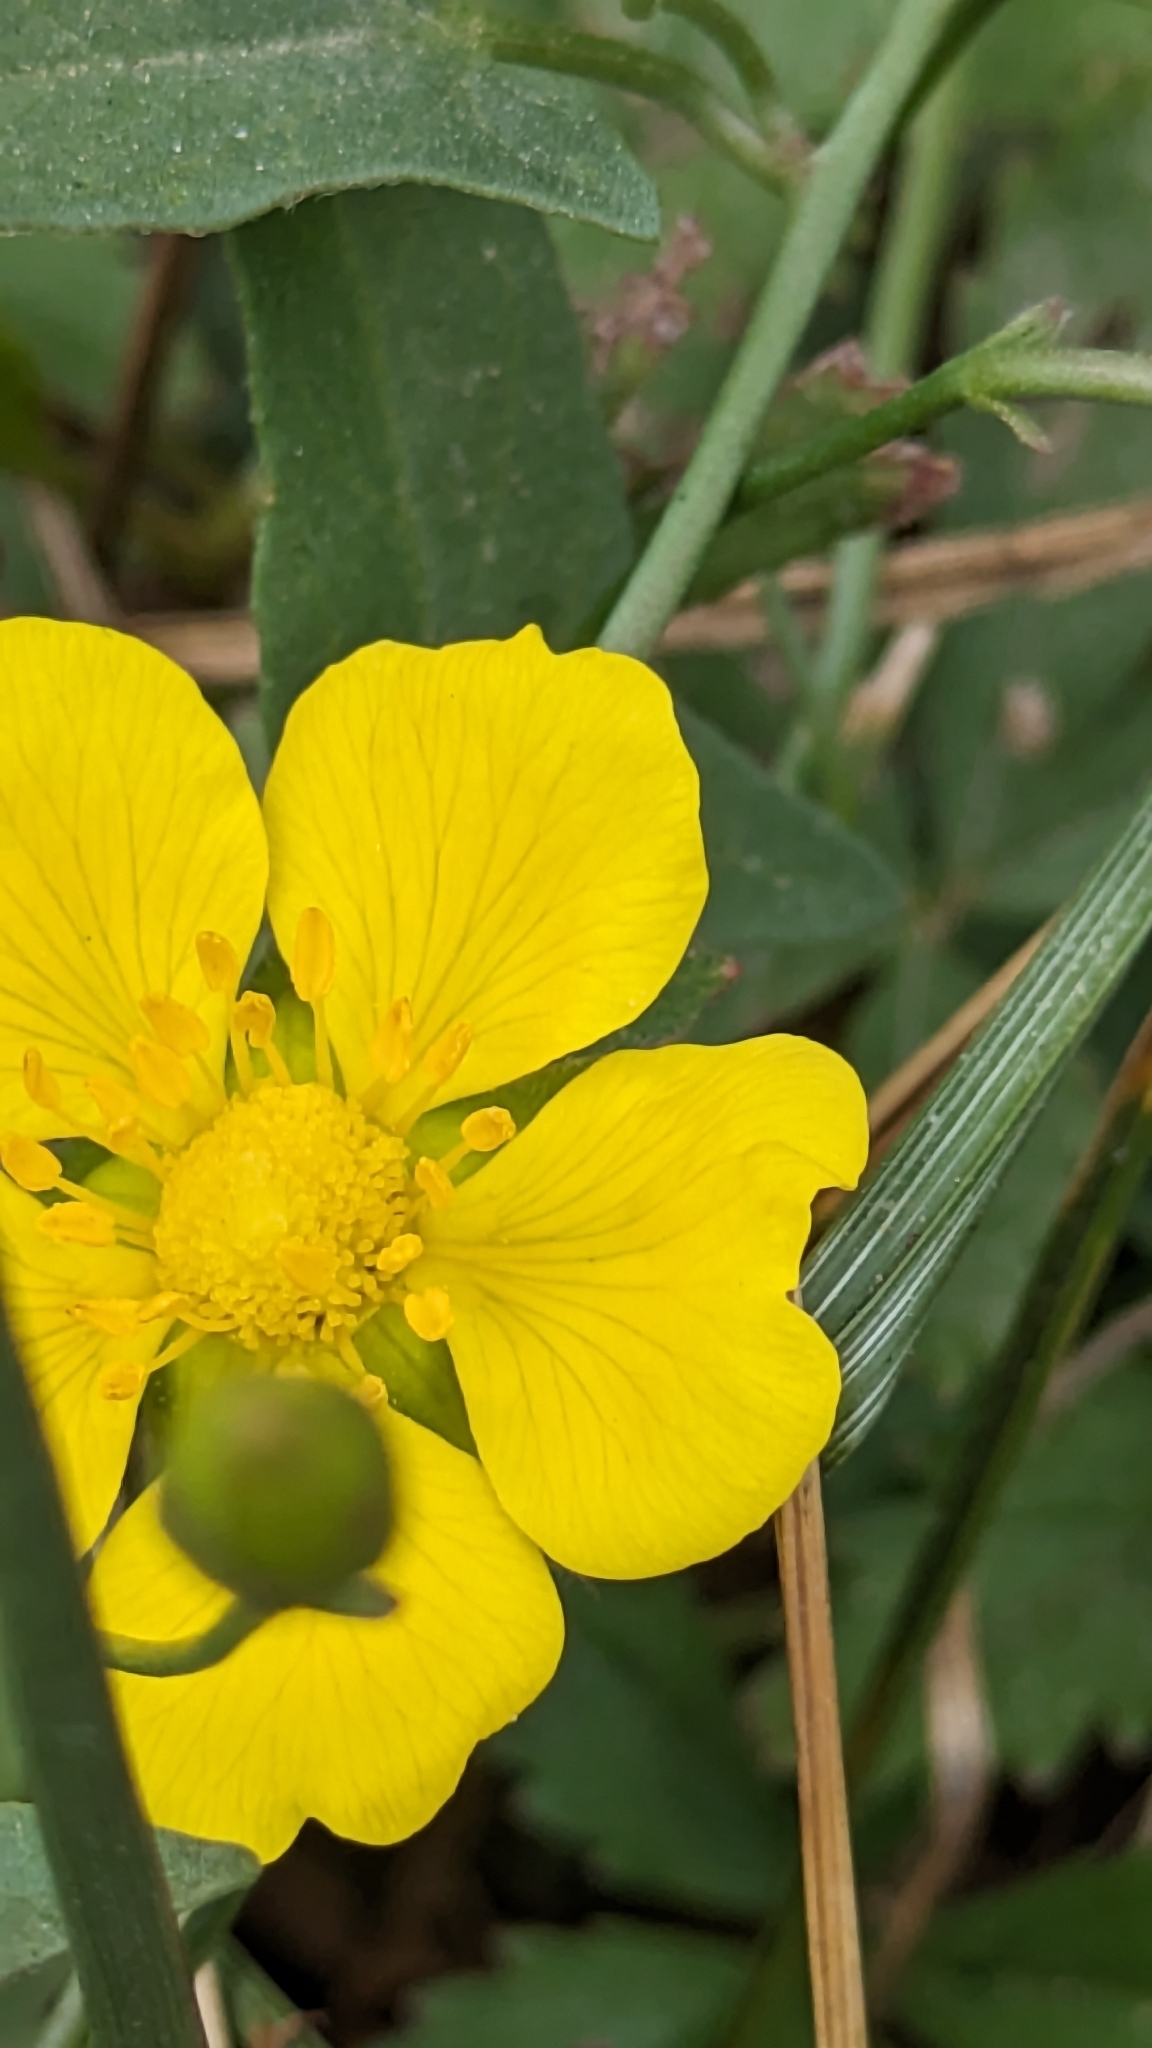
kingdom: Plantae
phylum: Tracheophyta
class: Magnoliopsida
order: Rosales
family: Rosaceae
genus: Potentilla
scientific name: Potentilla reptans
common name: Creeping cinquefoil
